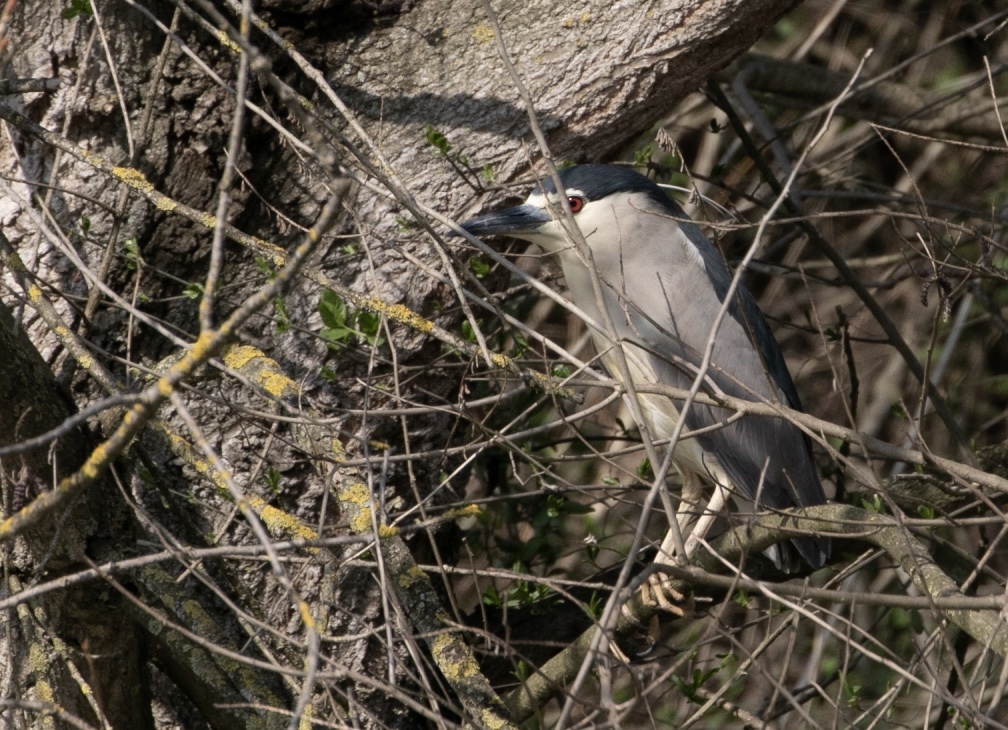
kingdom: Animalia
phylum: Chordata
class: Aves
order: Pelecaniformes
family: Ardeidae
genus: Nycticorax
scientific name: Nycticorax nycticorax
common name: Black-crowned night heron
